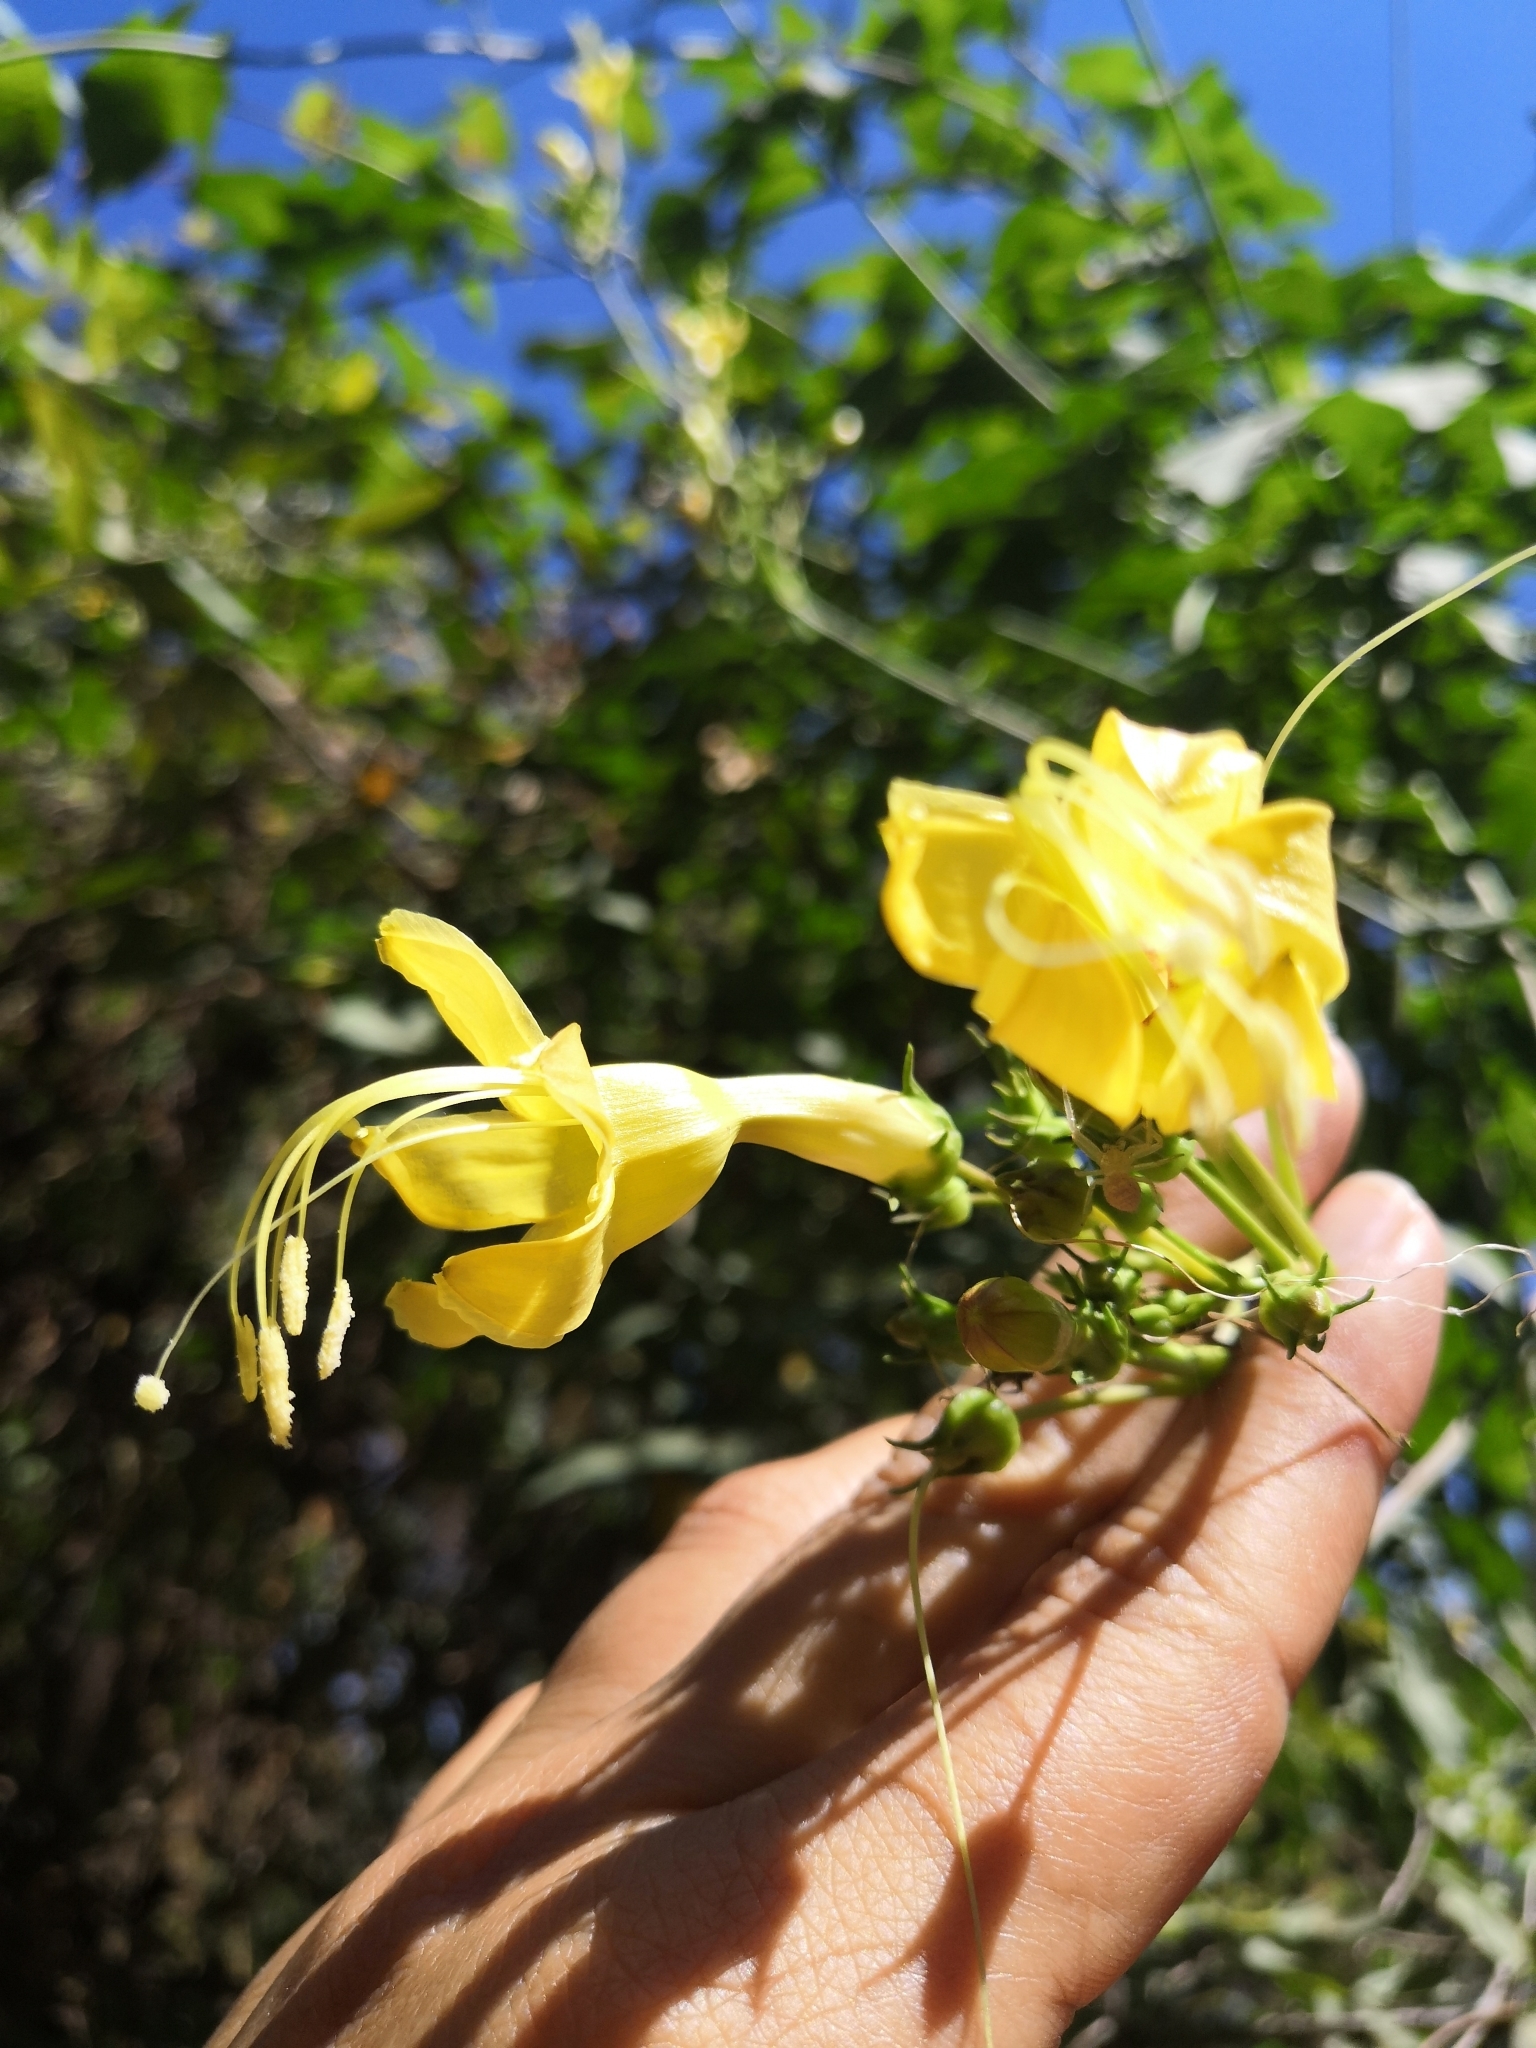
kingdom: Plantae
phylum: Tracheophyta
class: Magnoliopsida
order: Solanales
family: Convolvulaceae
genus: Ipomoea
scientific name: Ipomoea neei
